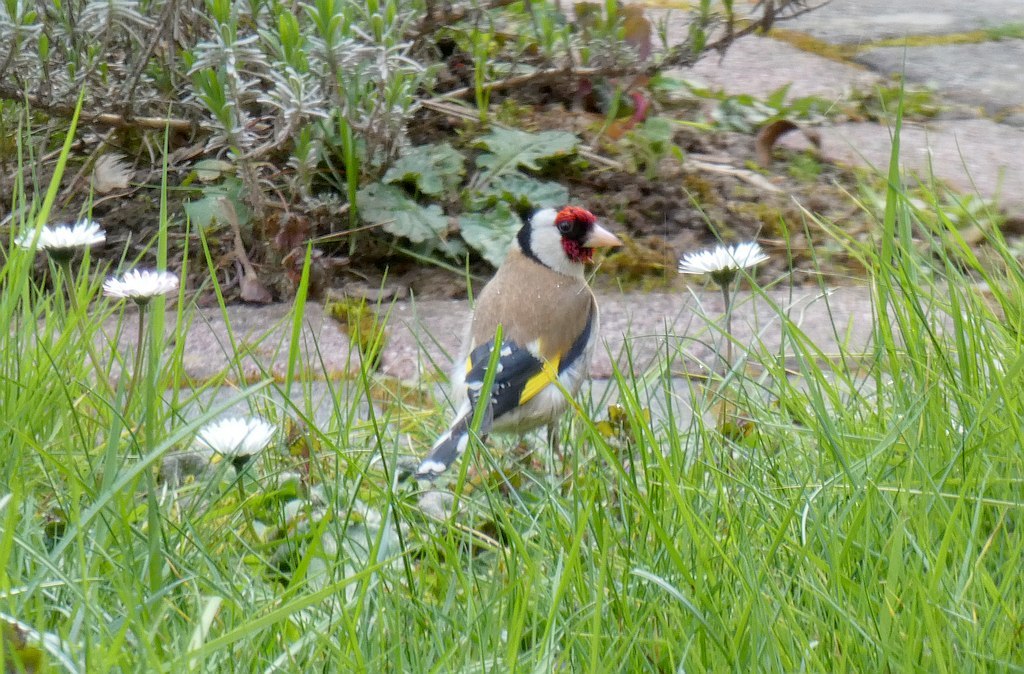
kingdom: Animalia
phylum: Chordata
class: Aves
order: Passeriformes
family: Fringillidae
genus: Carduelis
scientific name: Carduelis carduelis
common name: European goldfinch
